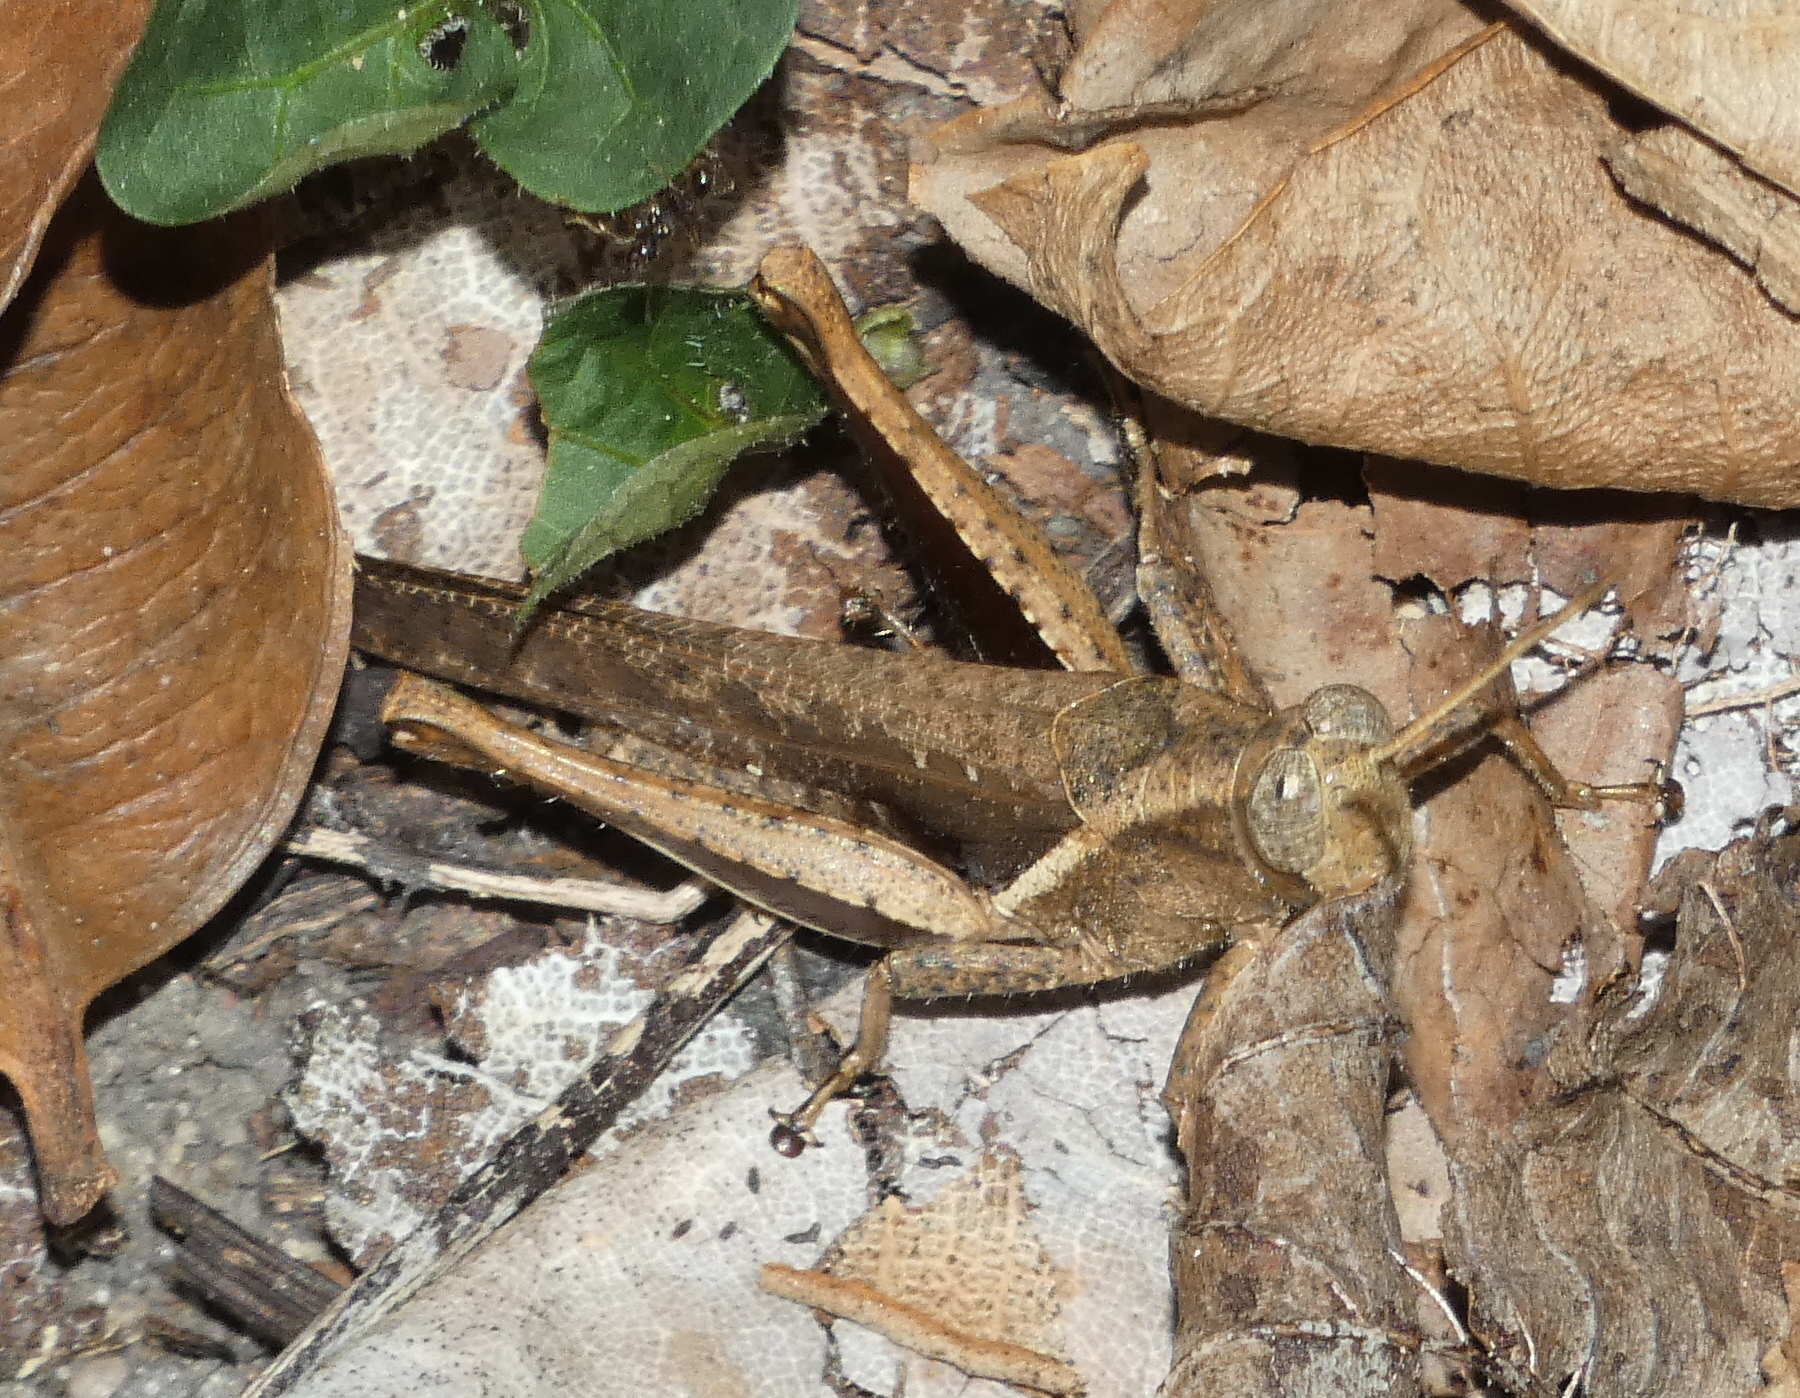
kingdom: Animalia
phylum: Arthropoda
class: Insecta
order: Orthoptera
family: Acrididae
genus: Abracris
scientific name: Abracris flavolineata
